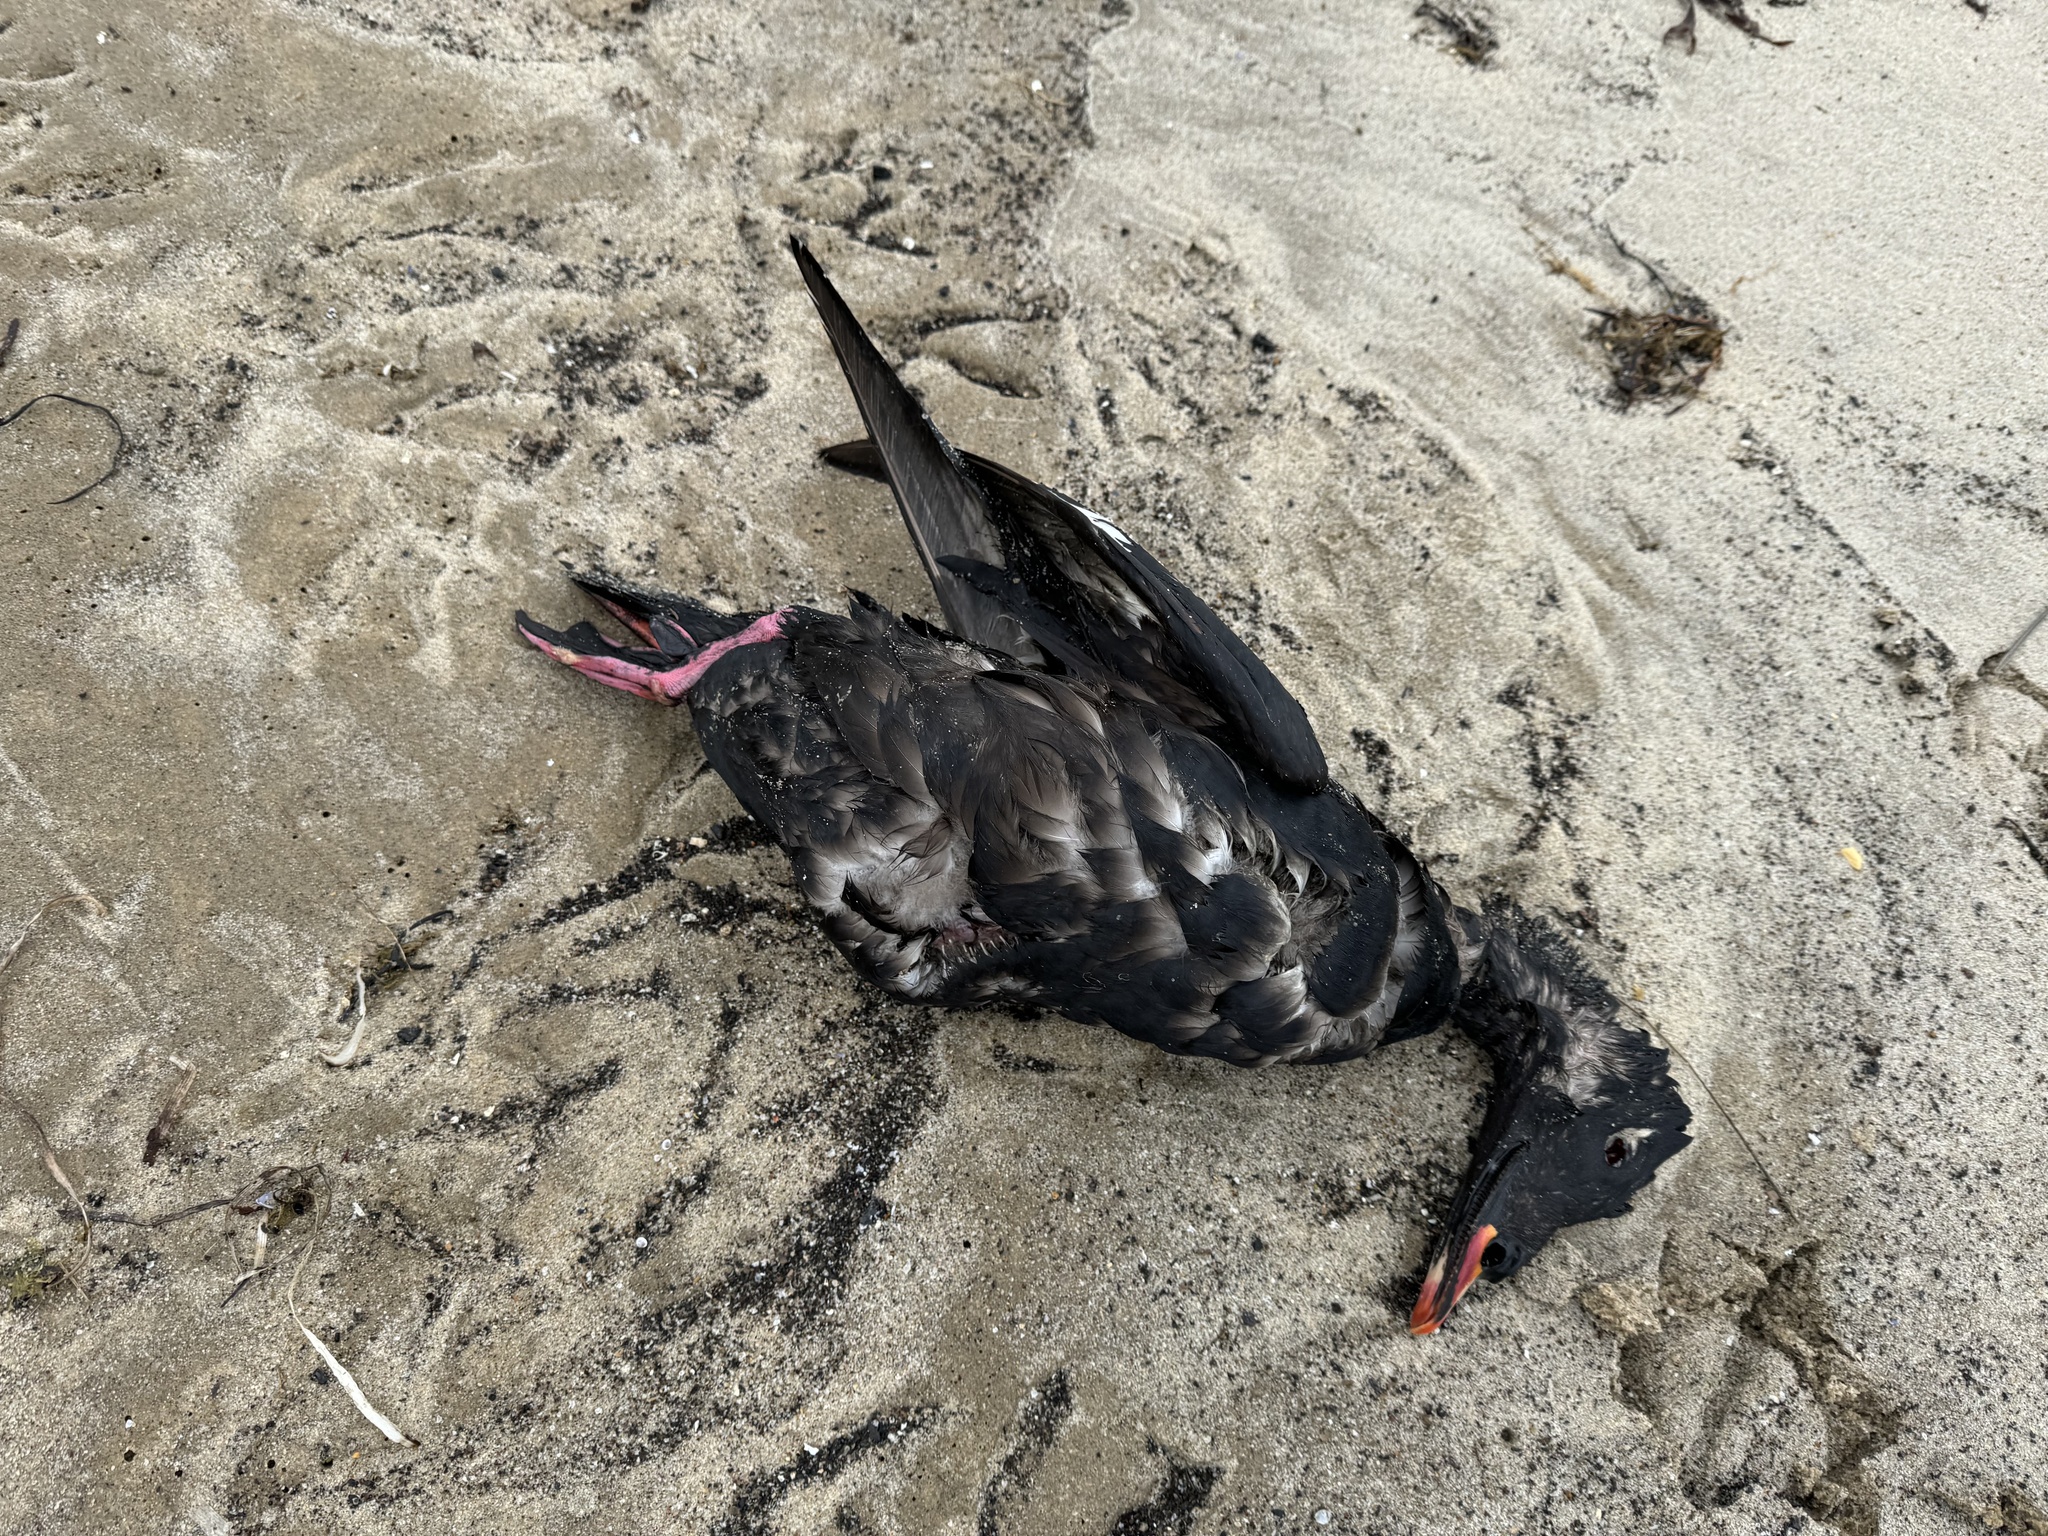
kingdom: Animalia
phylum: Chordata
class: Aves
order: Anseriformes
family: Anatidae
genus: Melanitta
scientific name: Melanitta deglandi
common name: White-winged scoter
